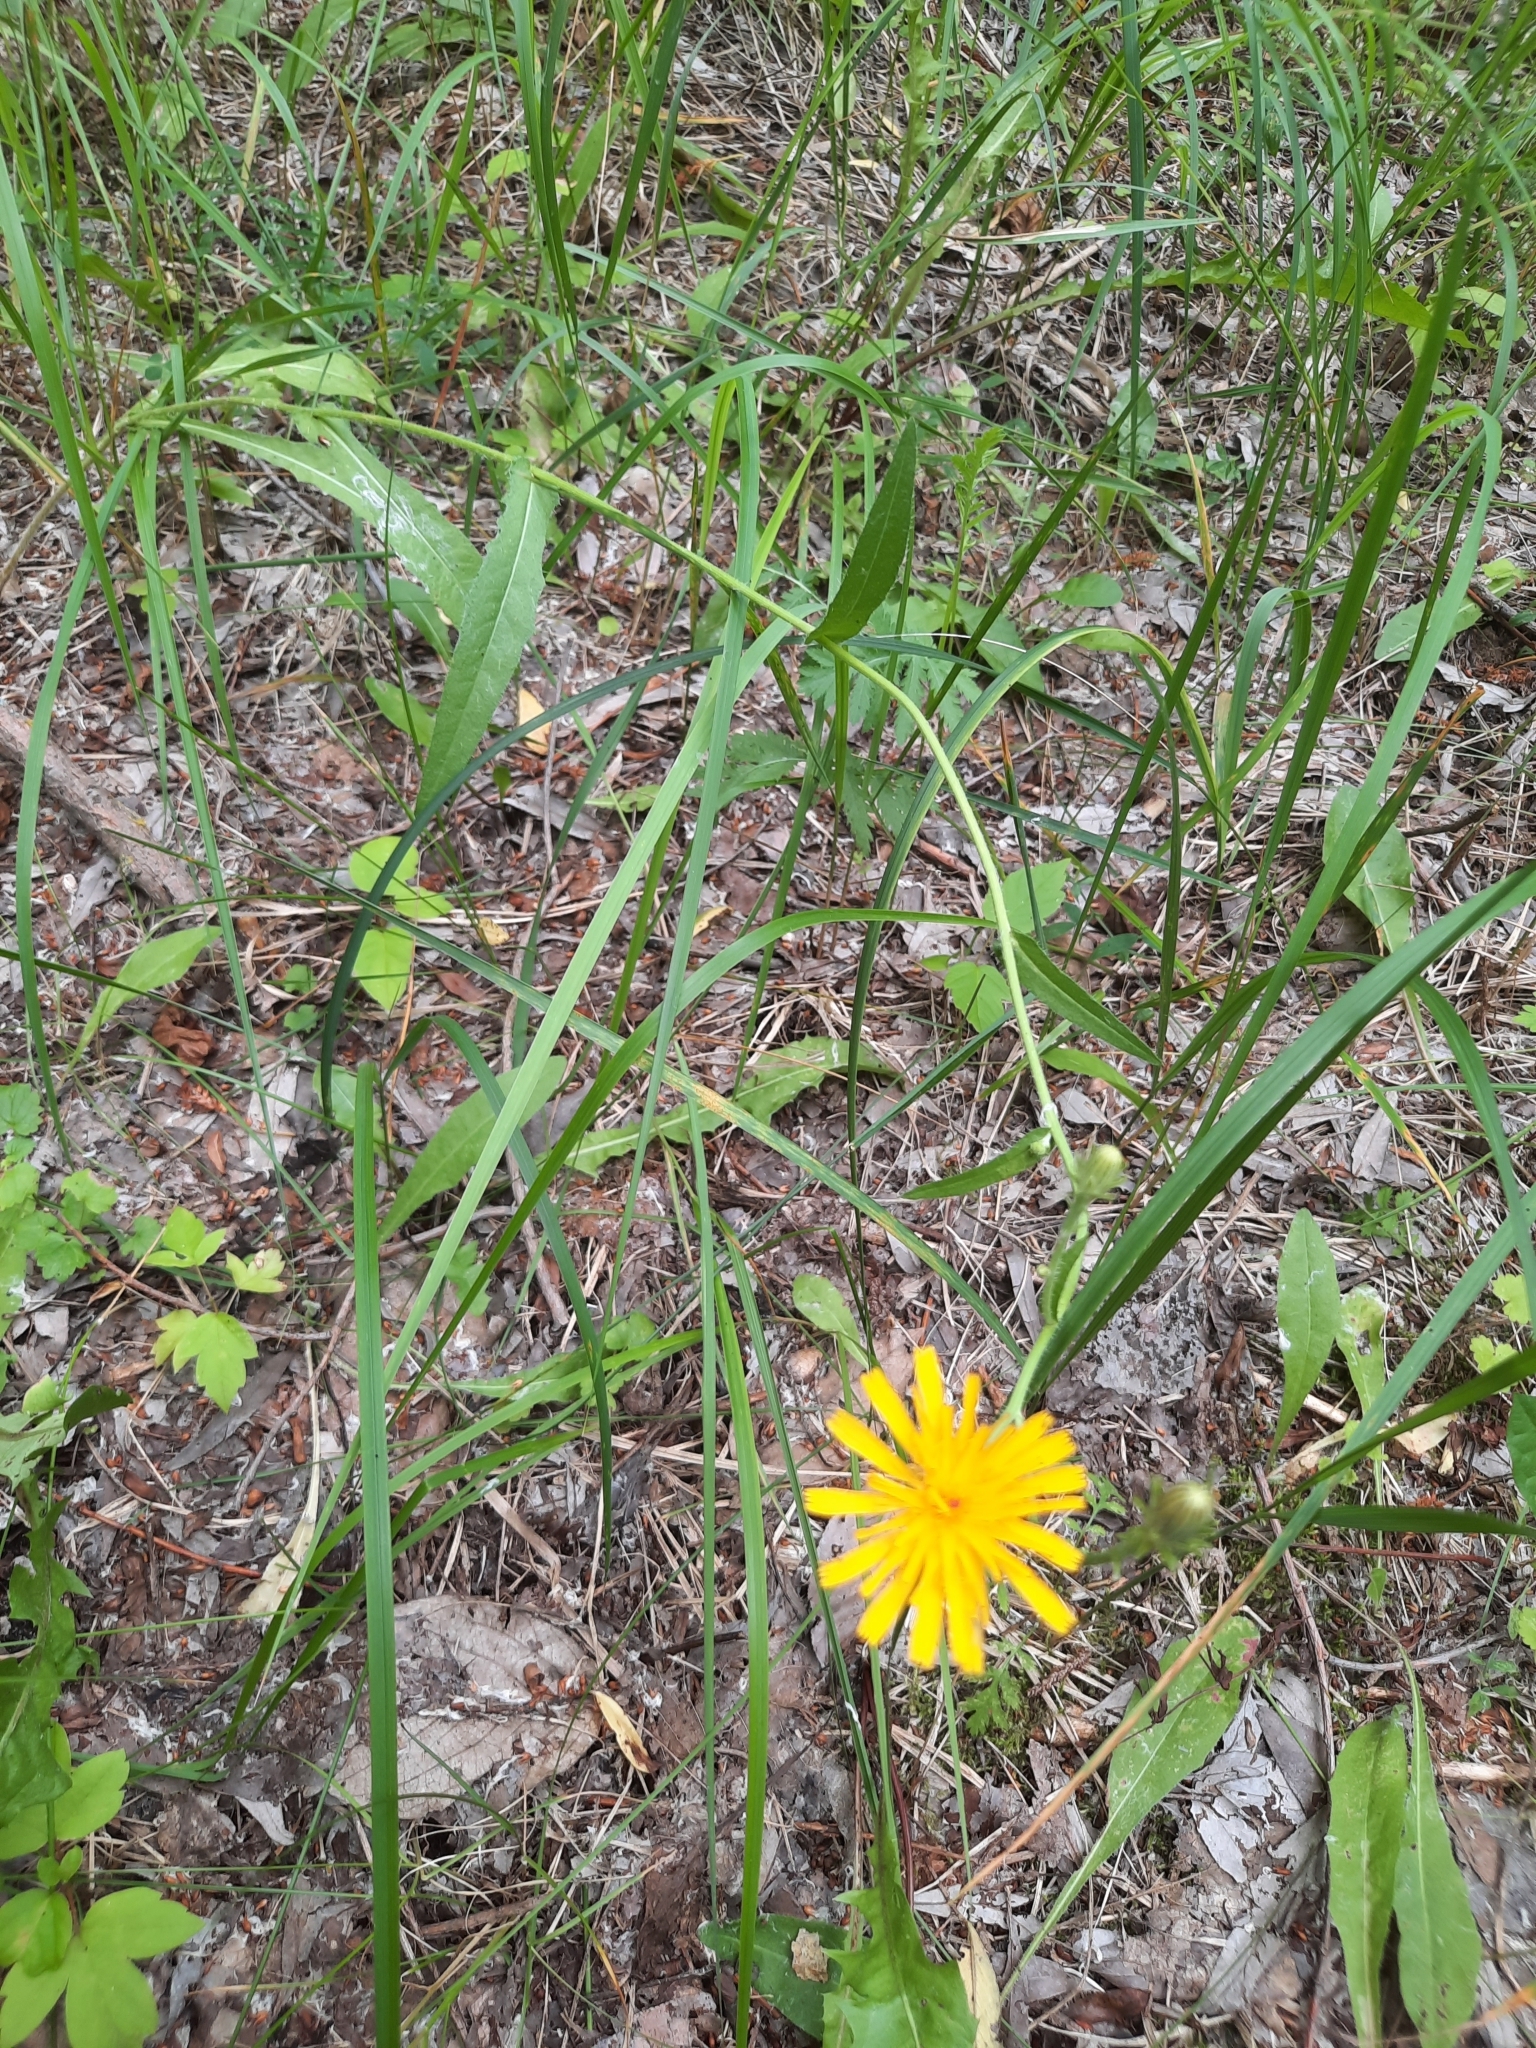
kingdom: Plantae
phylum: Tracheophyta
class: Magnoliopsida
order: Asterales
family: Asteraceae
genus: Picris
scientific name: Picris hieracioides
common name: Hawkweed oxtongue
